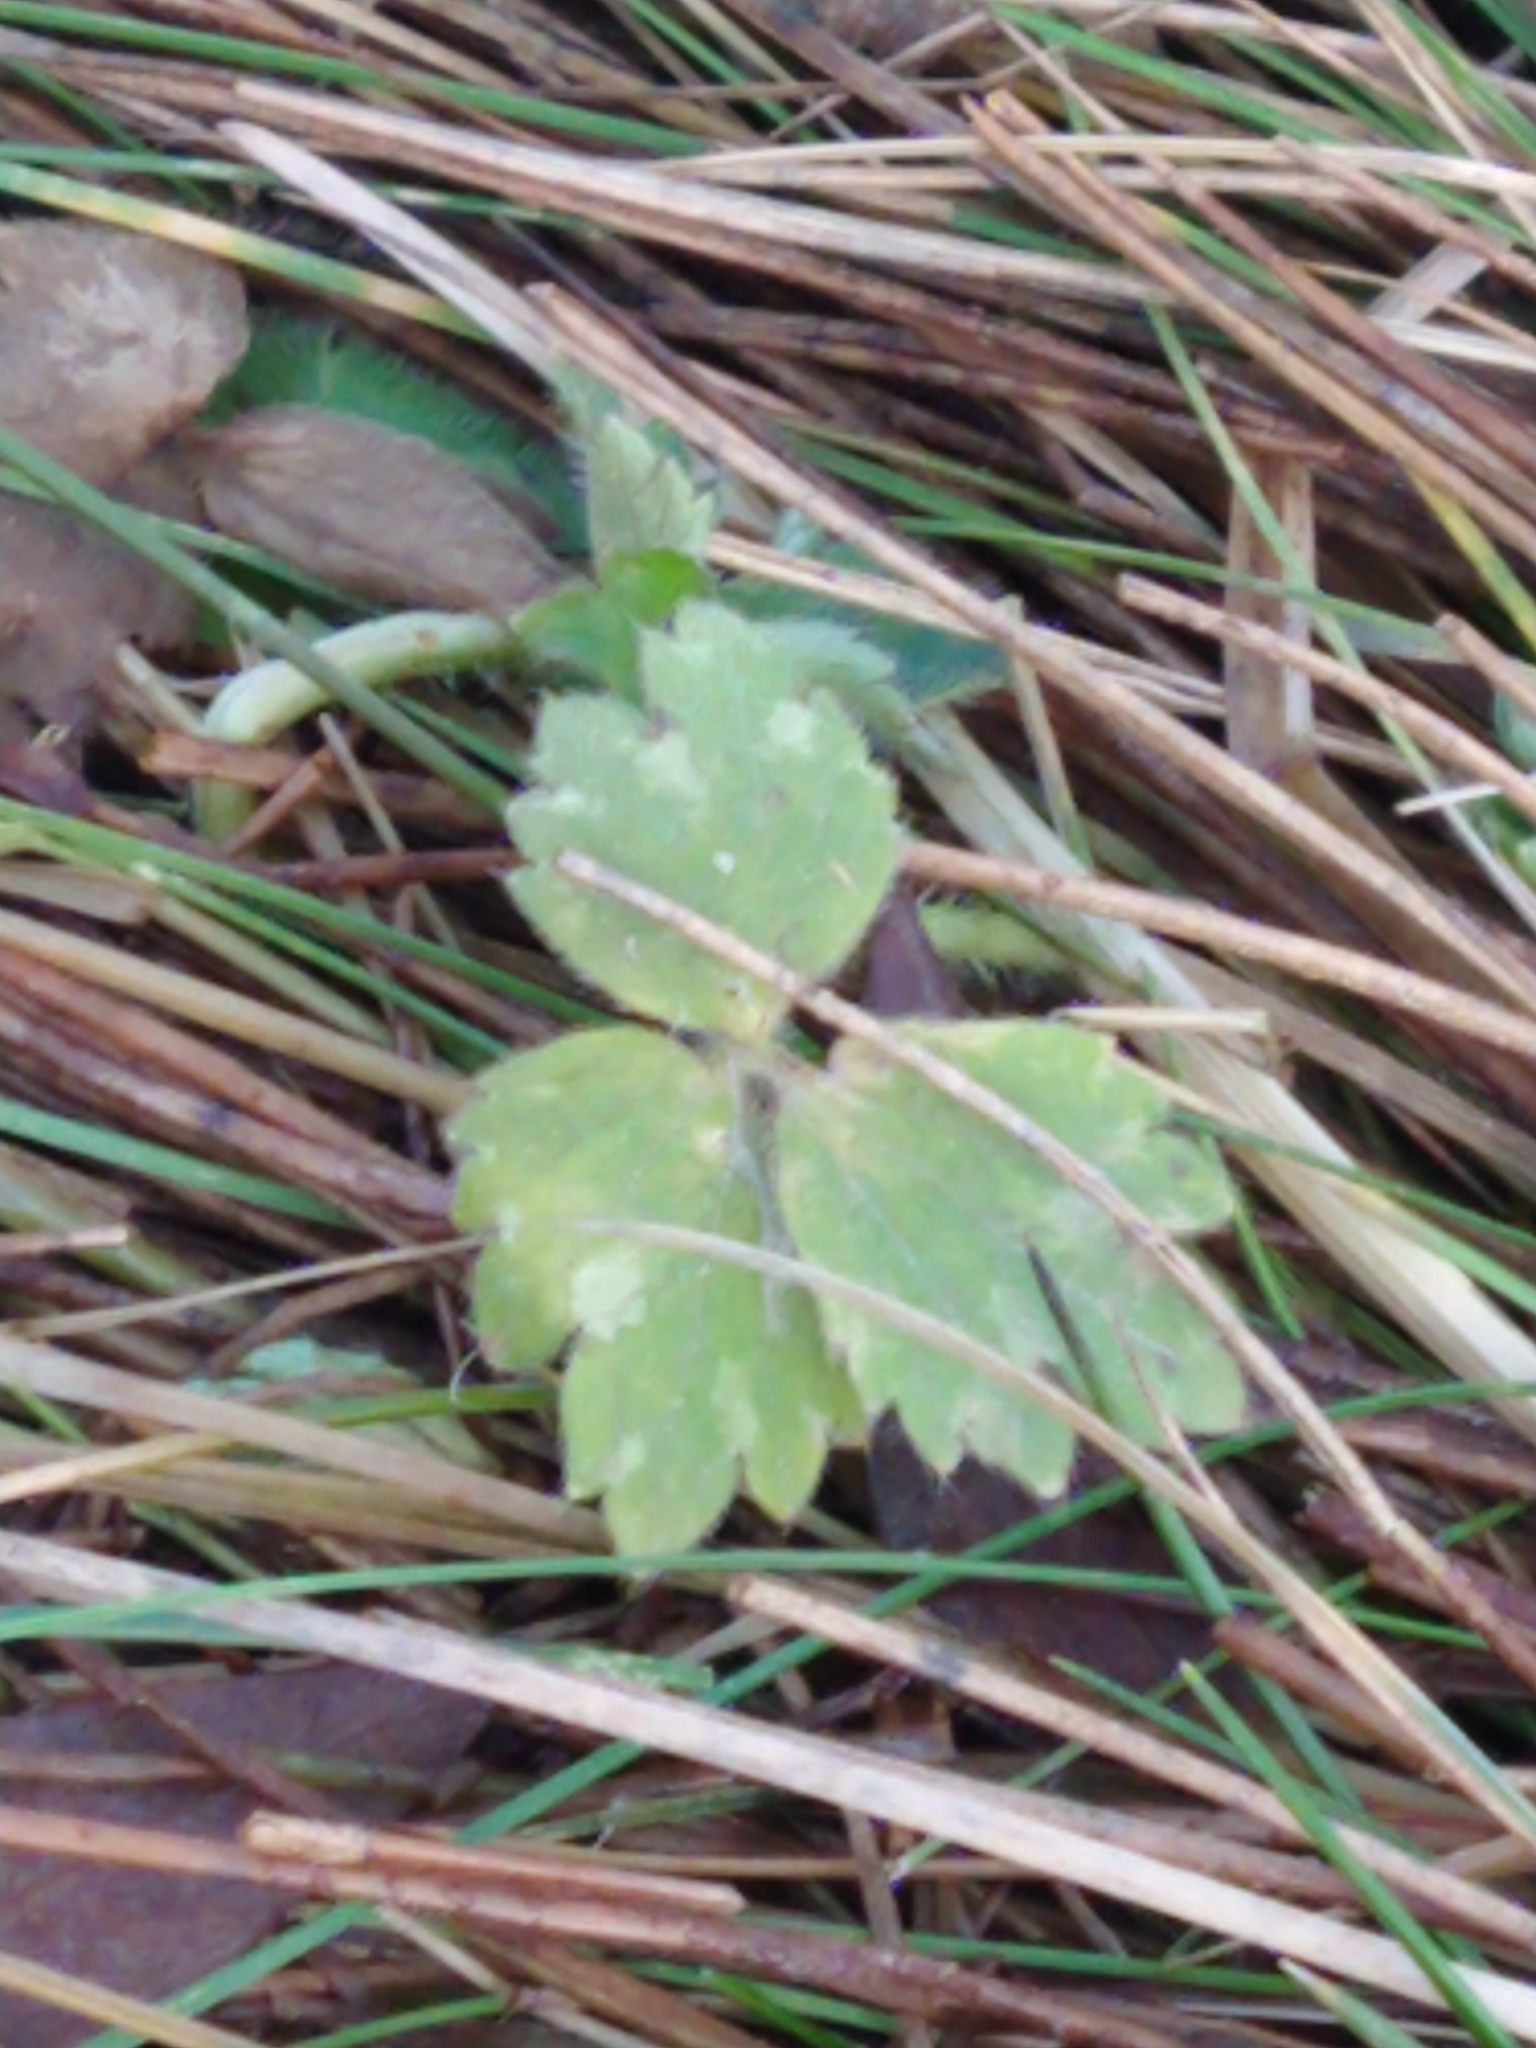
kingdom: Plantae
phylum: Tracheophyta
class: Magnoliopsida
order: Ranunculales
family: Ranunculaceae
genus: Ranunculus
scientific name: Ranunculus repens
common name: Creeping buttercup
